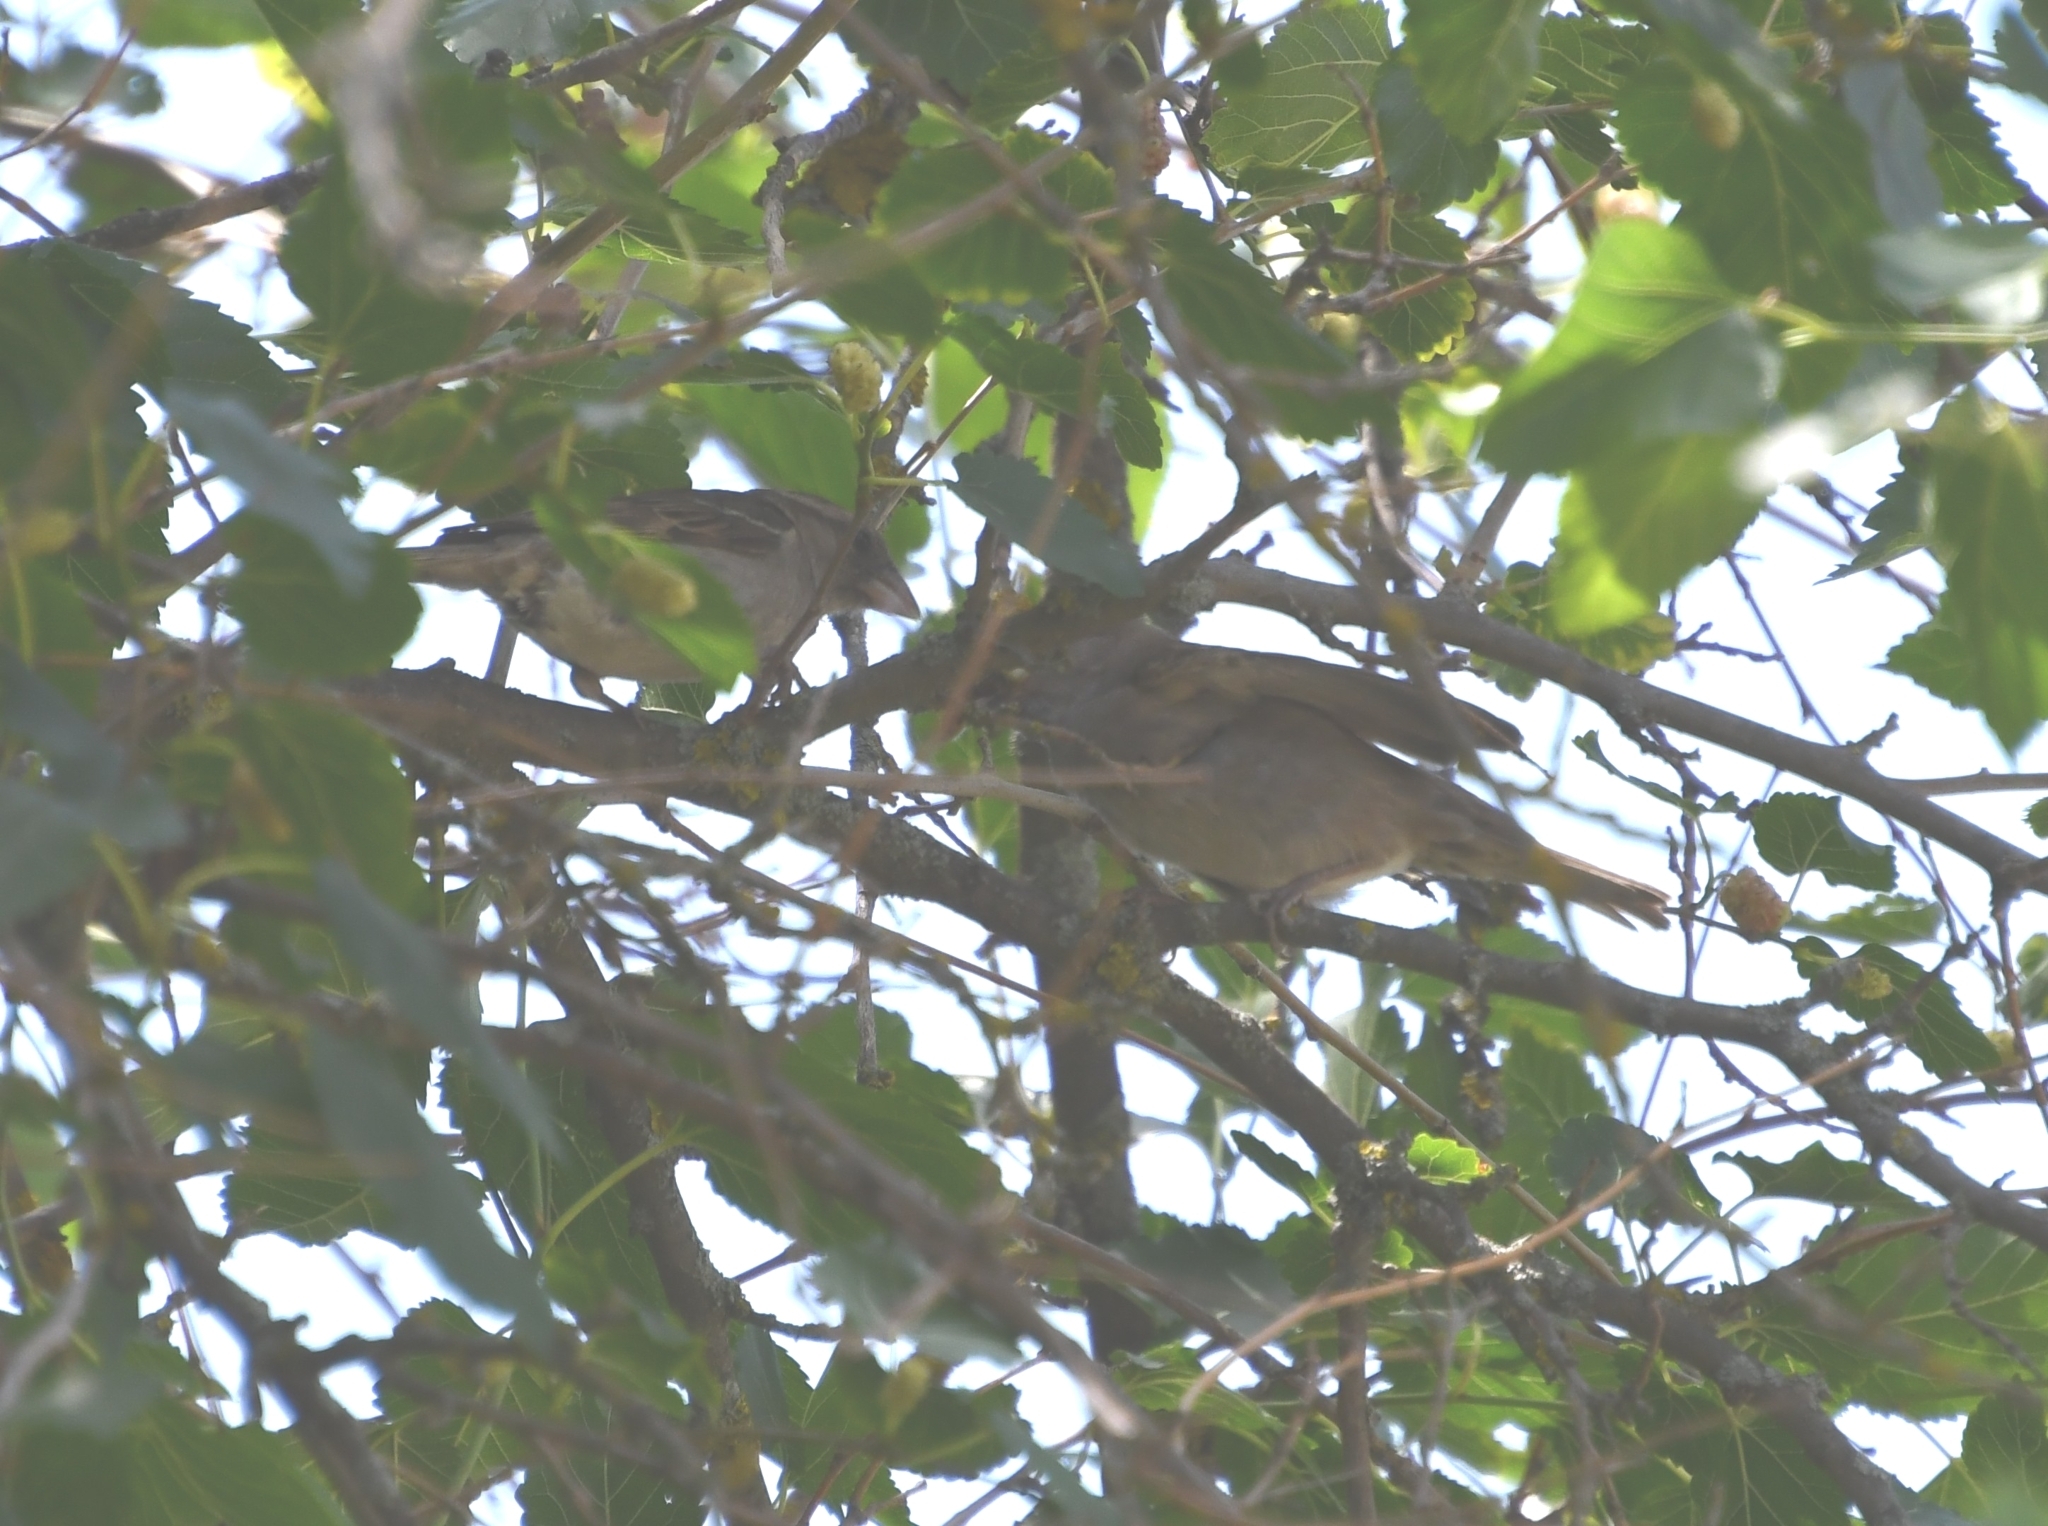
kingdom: Animalia
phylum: Chordata
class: Aves
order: Passeriformes
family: Passeridae
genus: Passer
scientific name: Passer domesticus
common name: House sparrow
